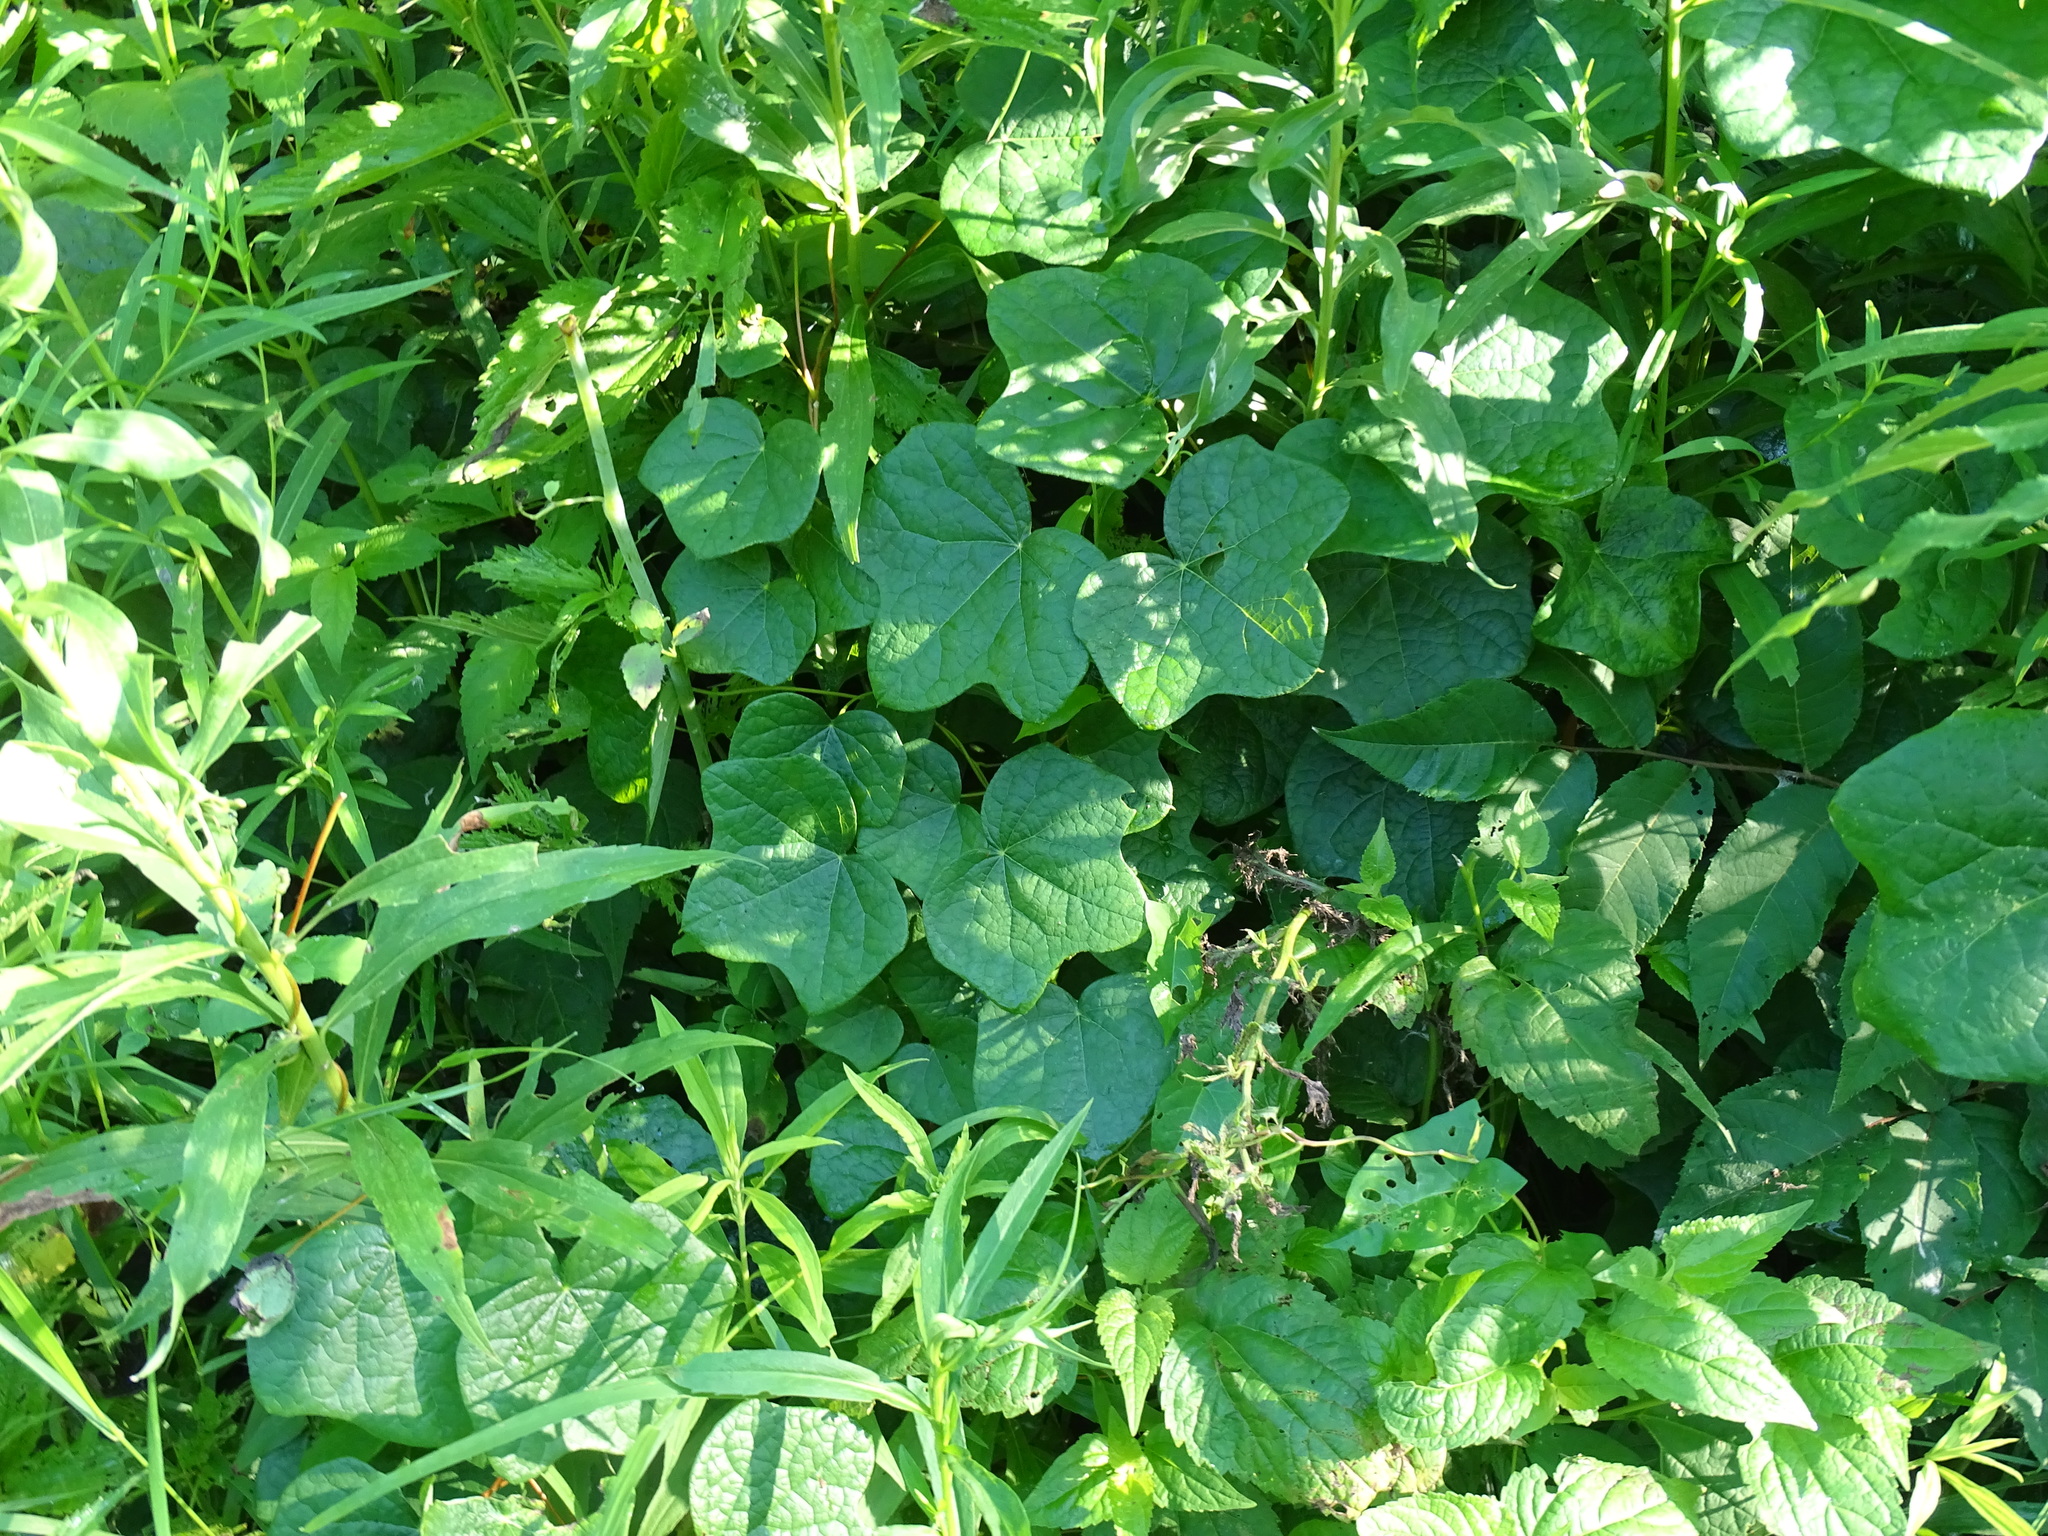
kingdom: Plantae
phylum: Tracheophyta
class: Magnoliopsida
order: Ranunculales
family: Menispermaceae
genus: Menispermum
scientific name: Menispermum canadense
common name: Moonseed
